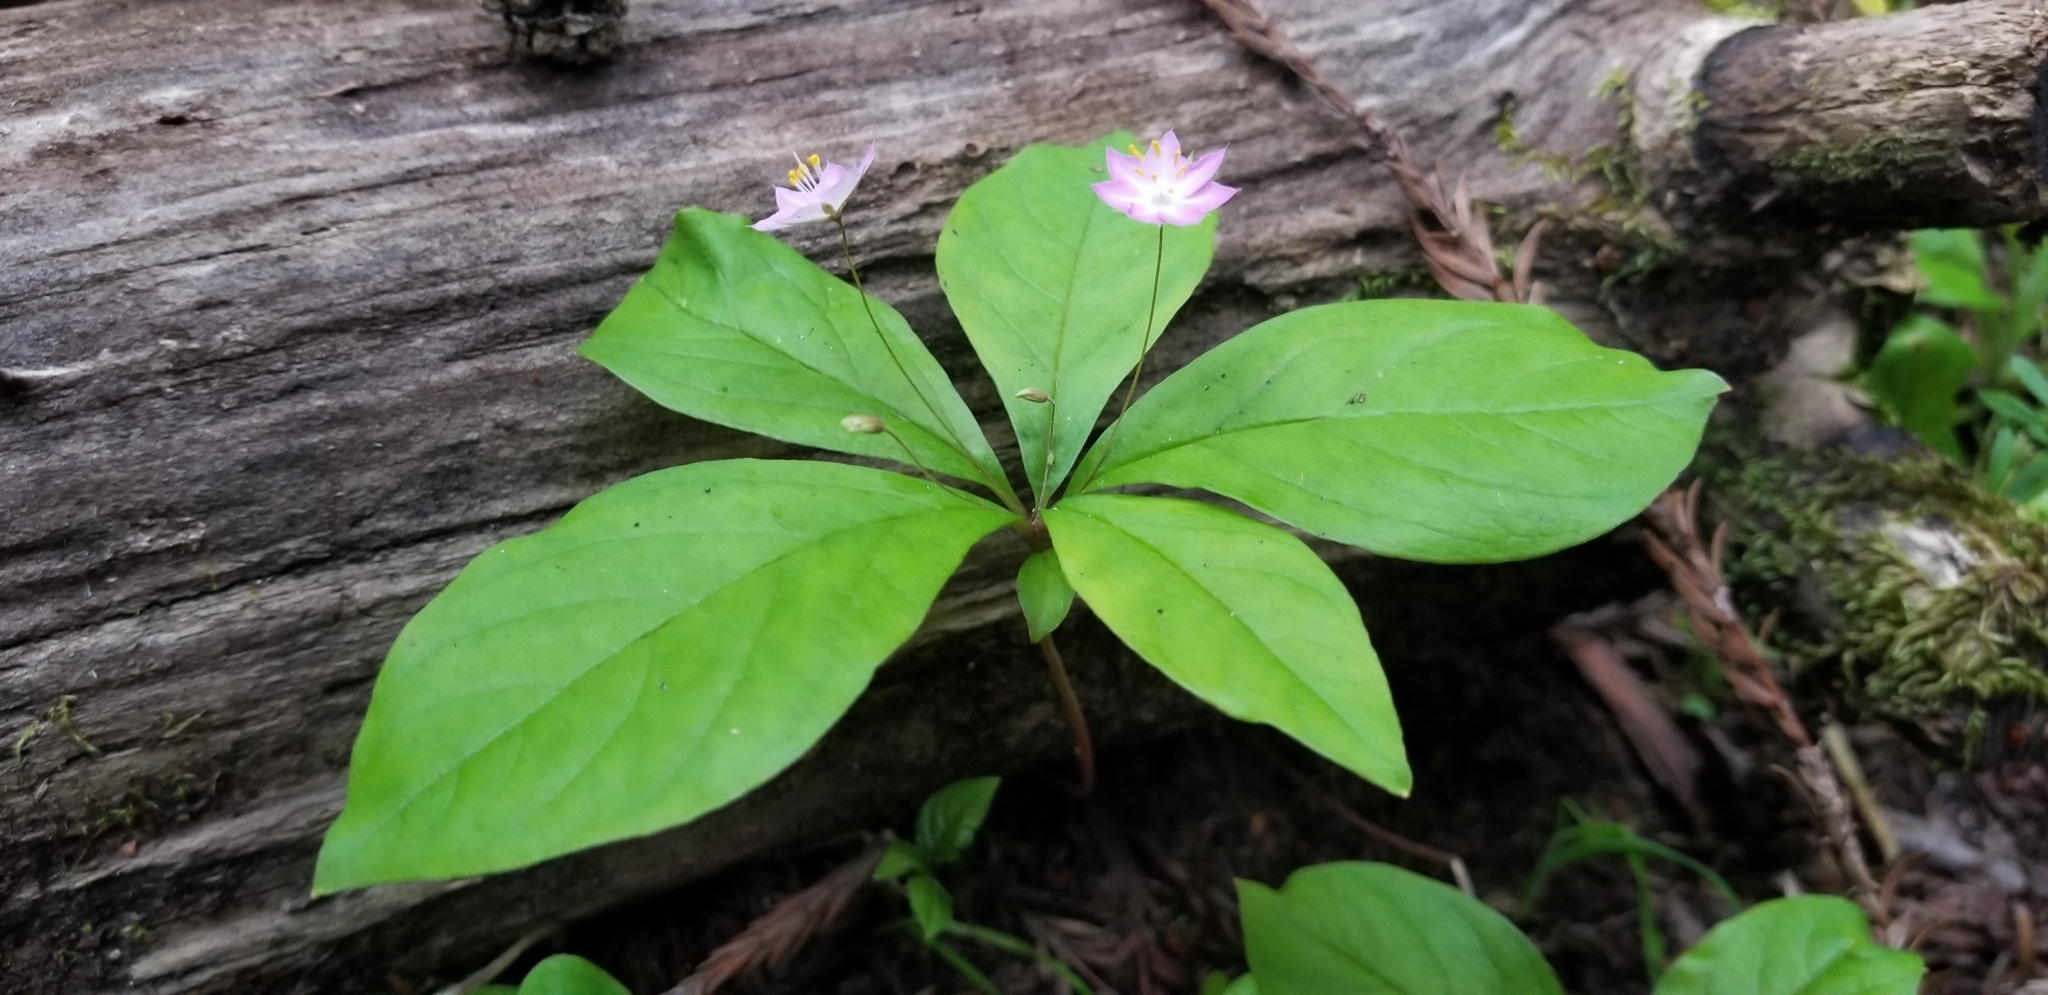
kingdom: Plantae
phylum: Tracheophyta
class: Magnoliopsida
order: Ericales
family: Primulaceae
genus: Lysimachia
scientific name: Lysimachia latifolia
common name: Pacific starflower
